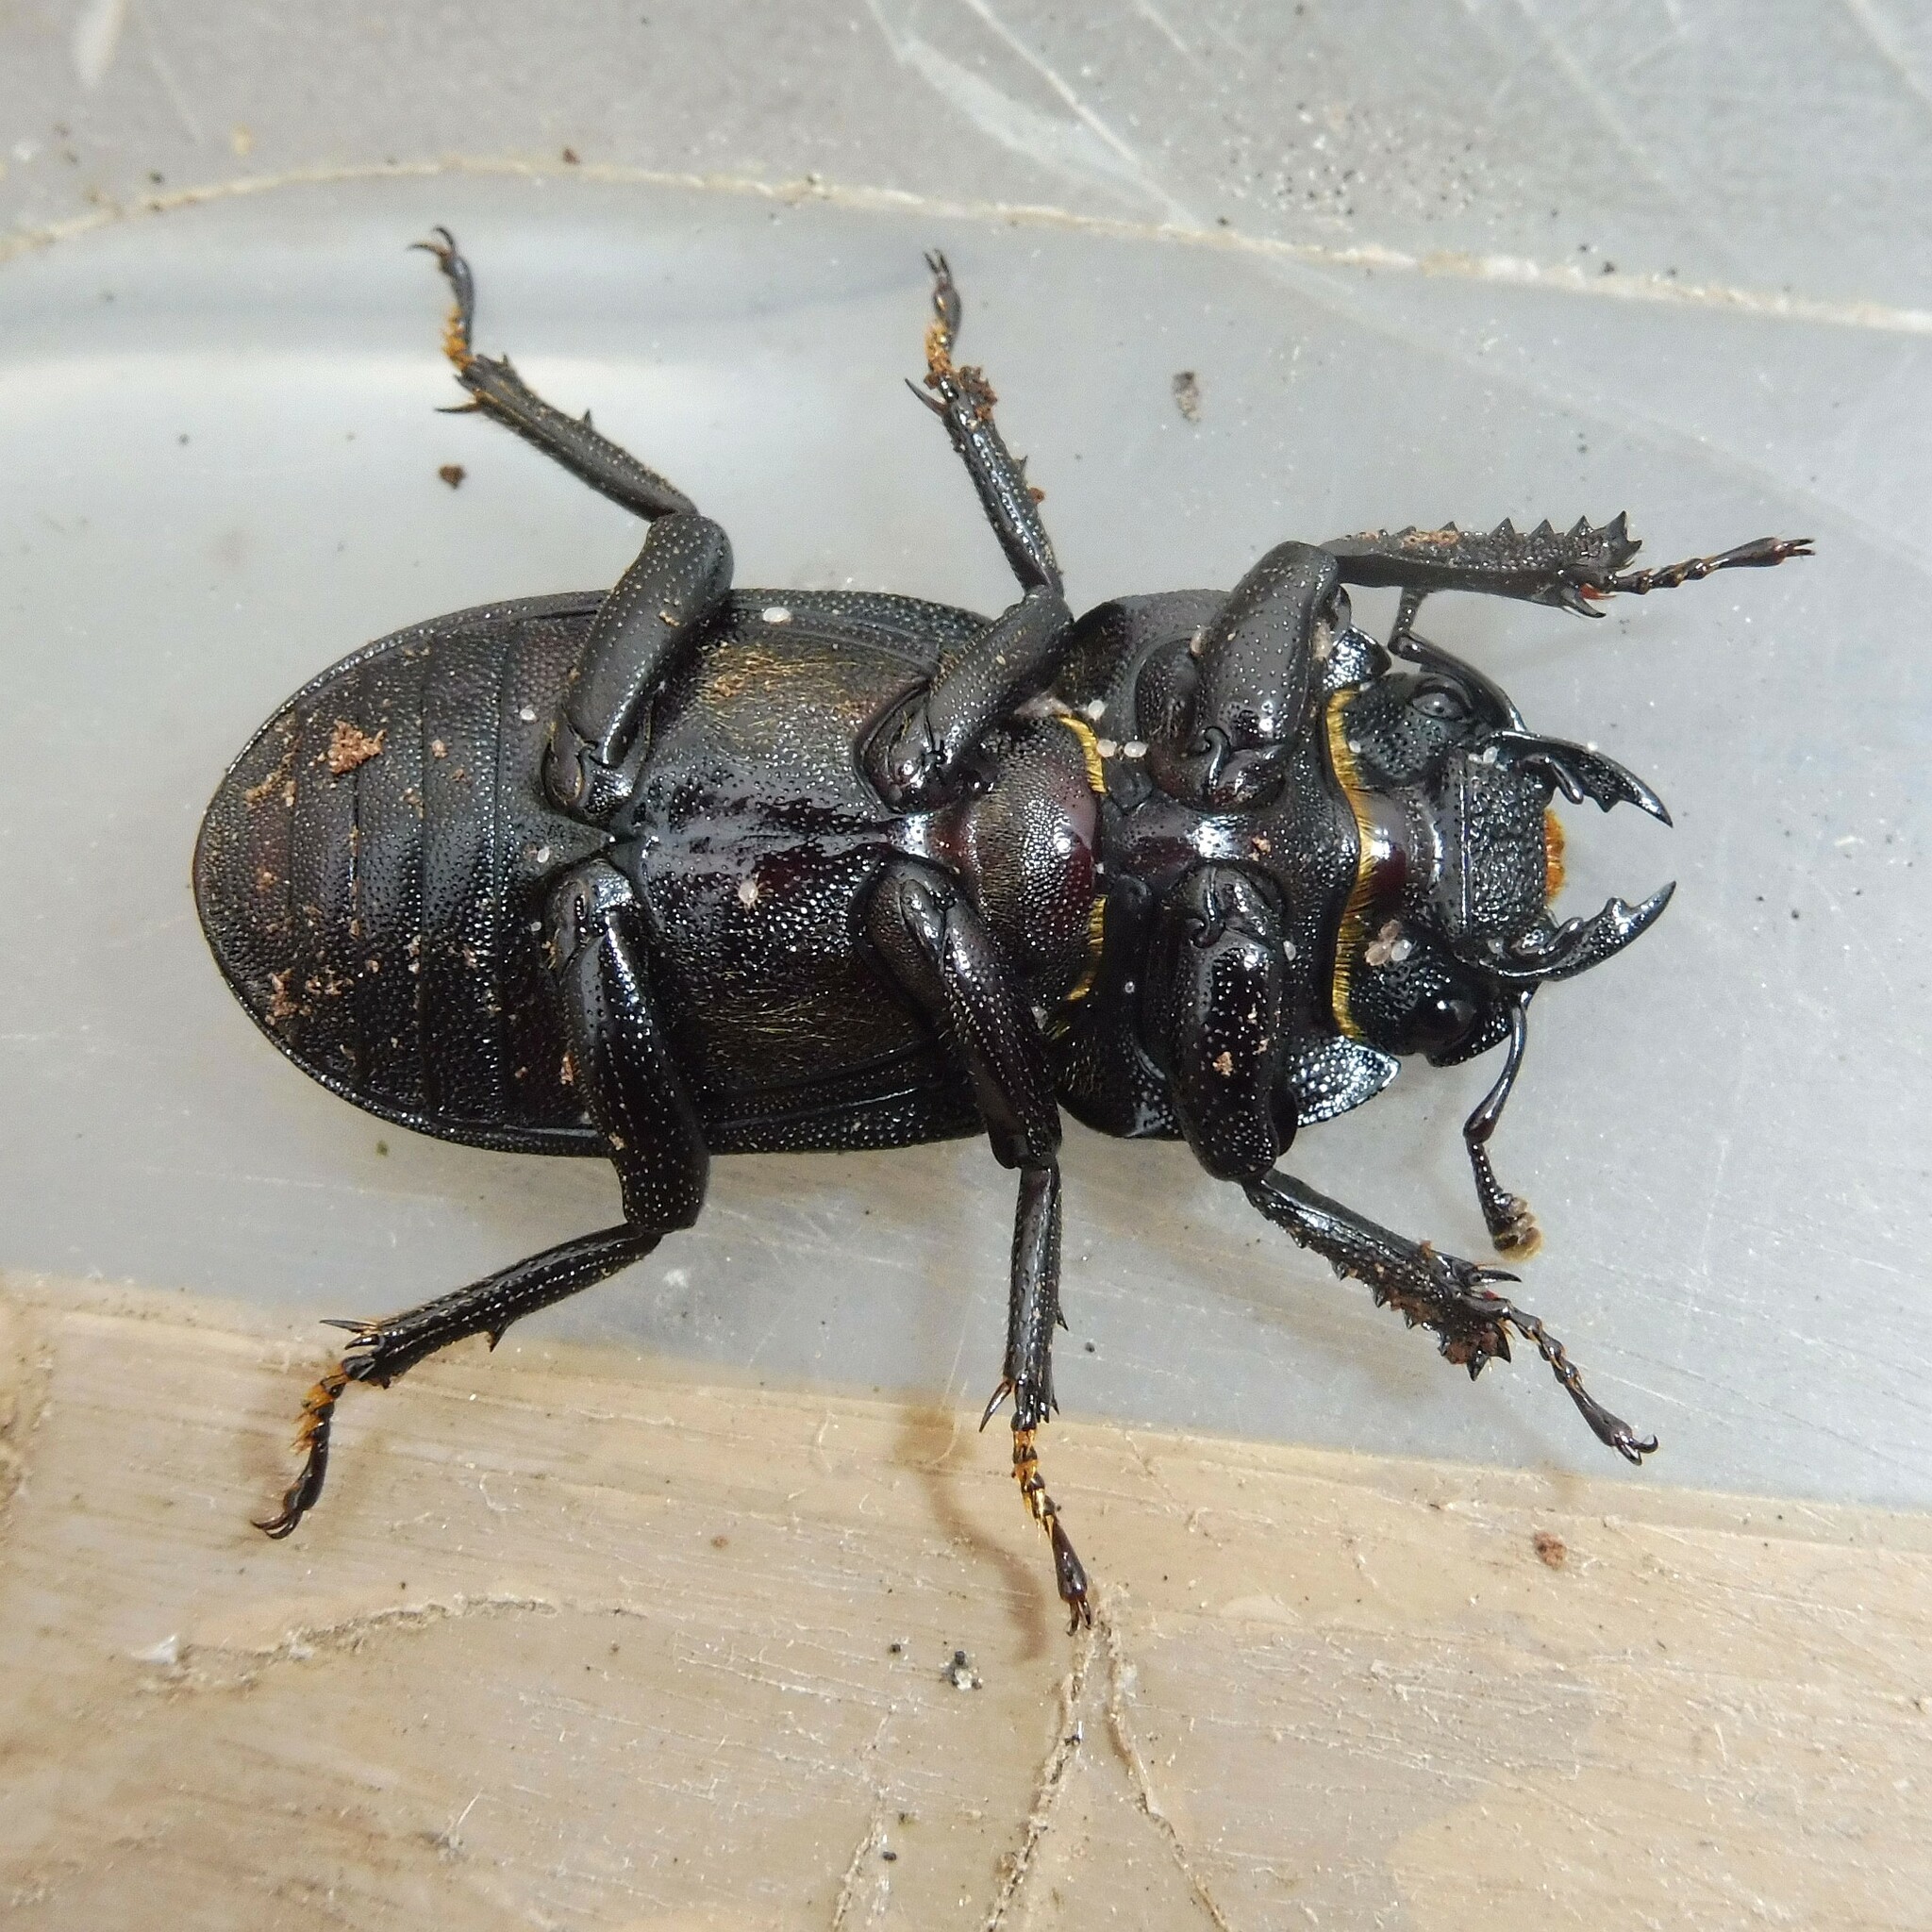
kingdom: Animalia
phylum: Arthropoda
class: Insecta
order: Coleoptera
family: Lucanidae
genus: Dorcus
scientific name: Dorcus parallelipipedus
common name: Lesser stag beetle
